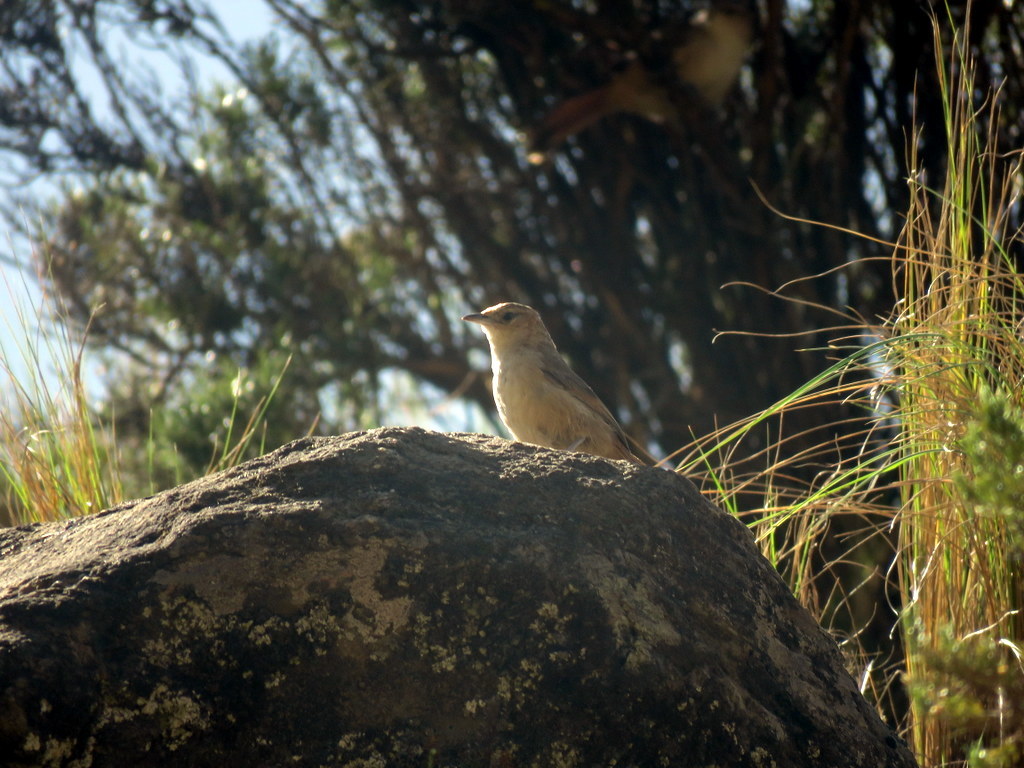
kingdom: Animalia
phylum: Chordata
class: Aves
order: Passeriformes
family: Furnariidae
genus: Phacellodomus
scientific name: Phacellodomus striaticeps
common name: Streak-fronted thornbird
